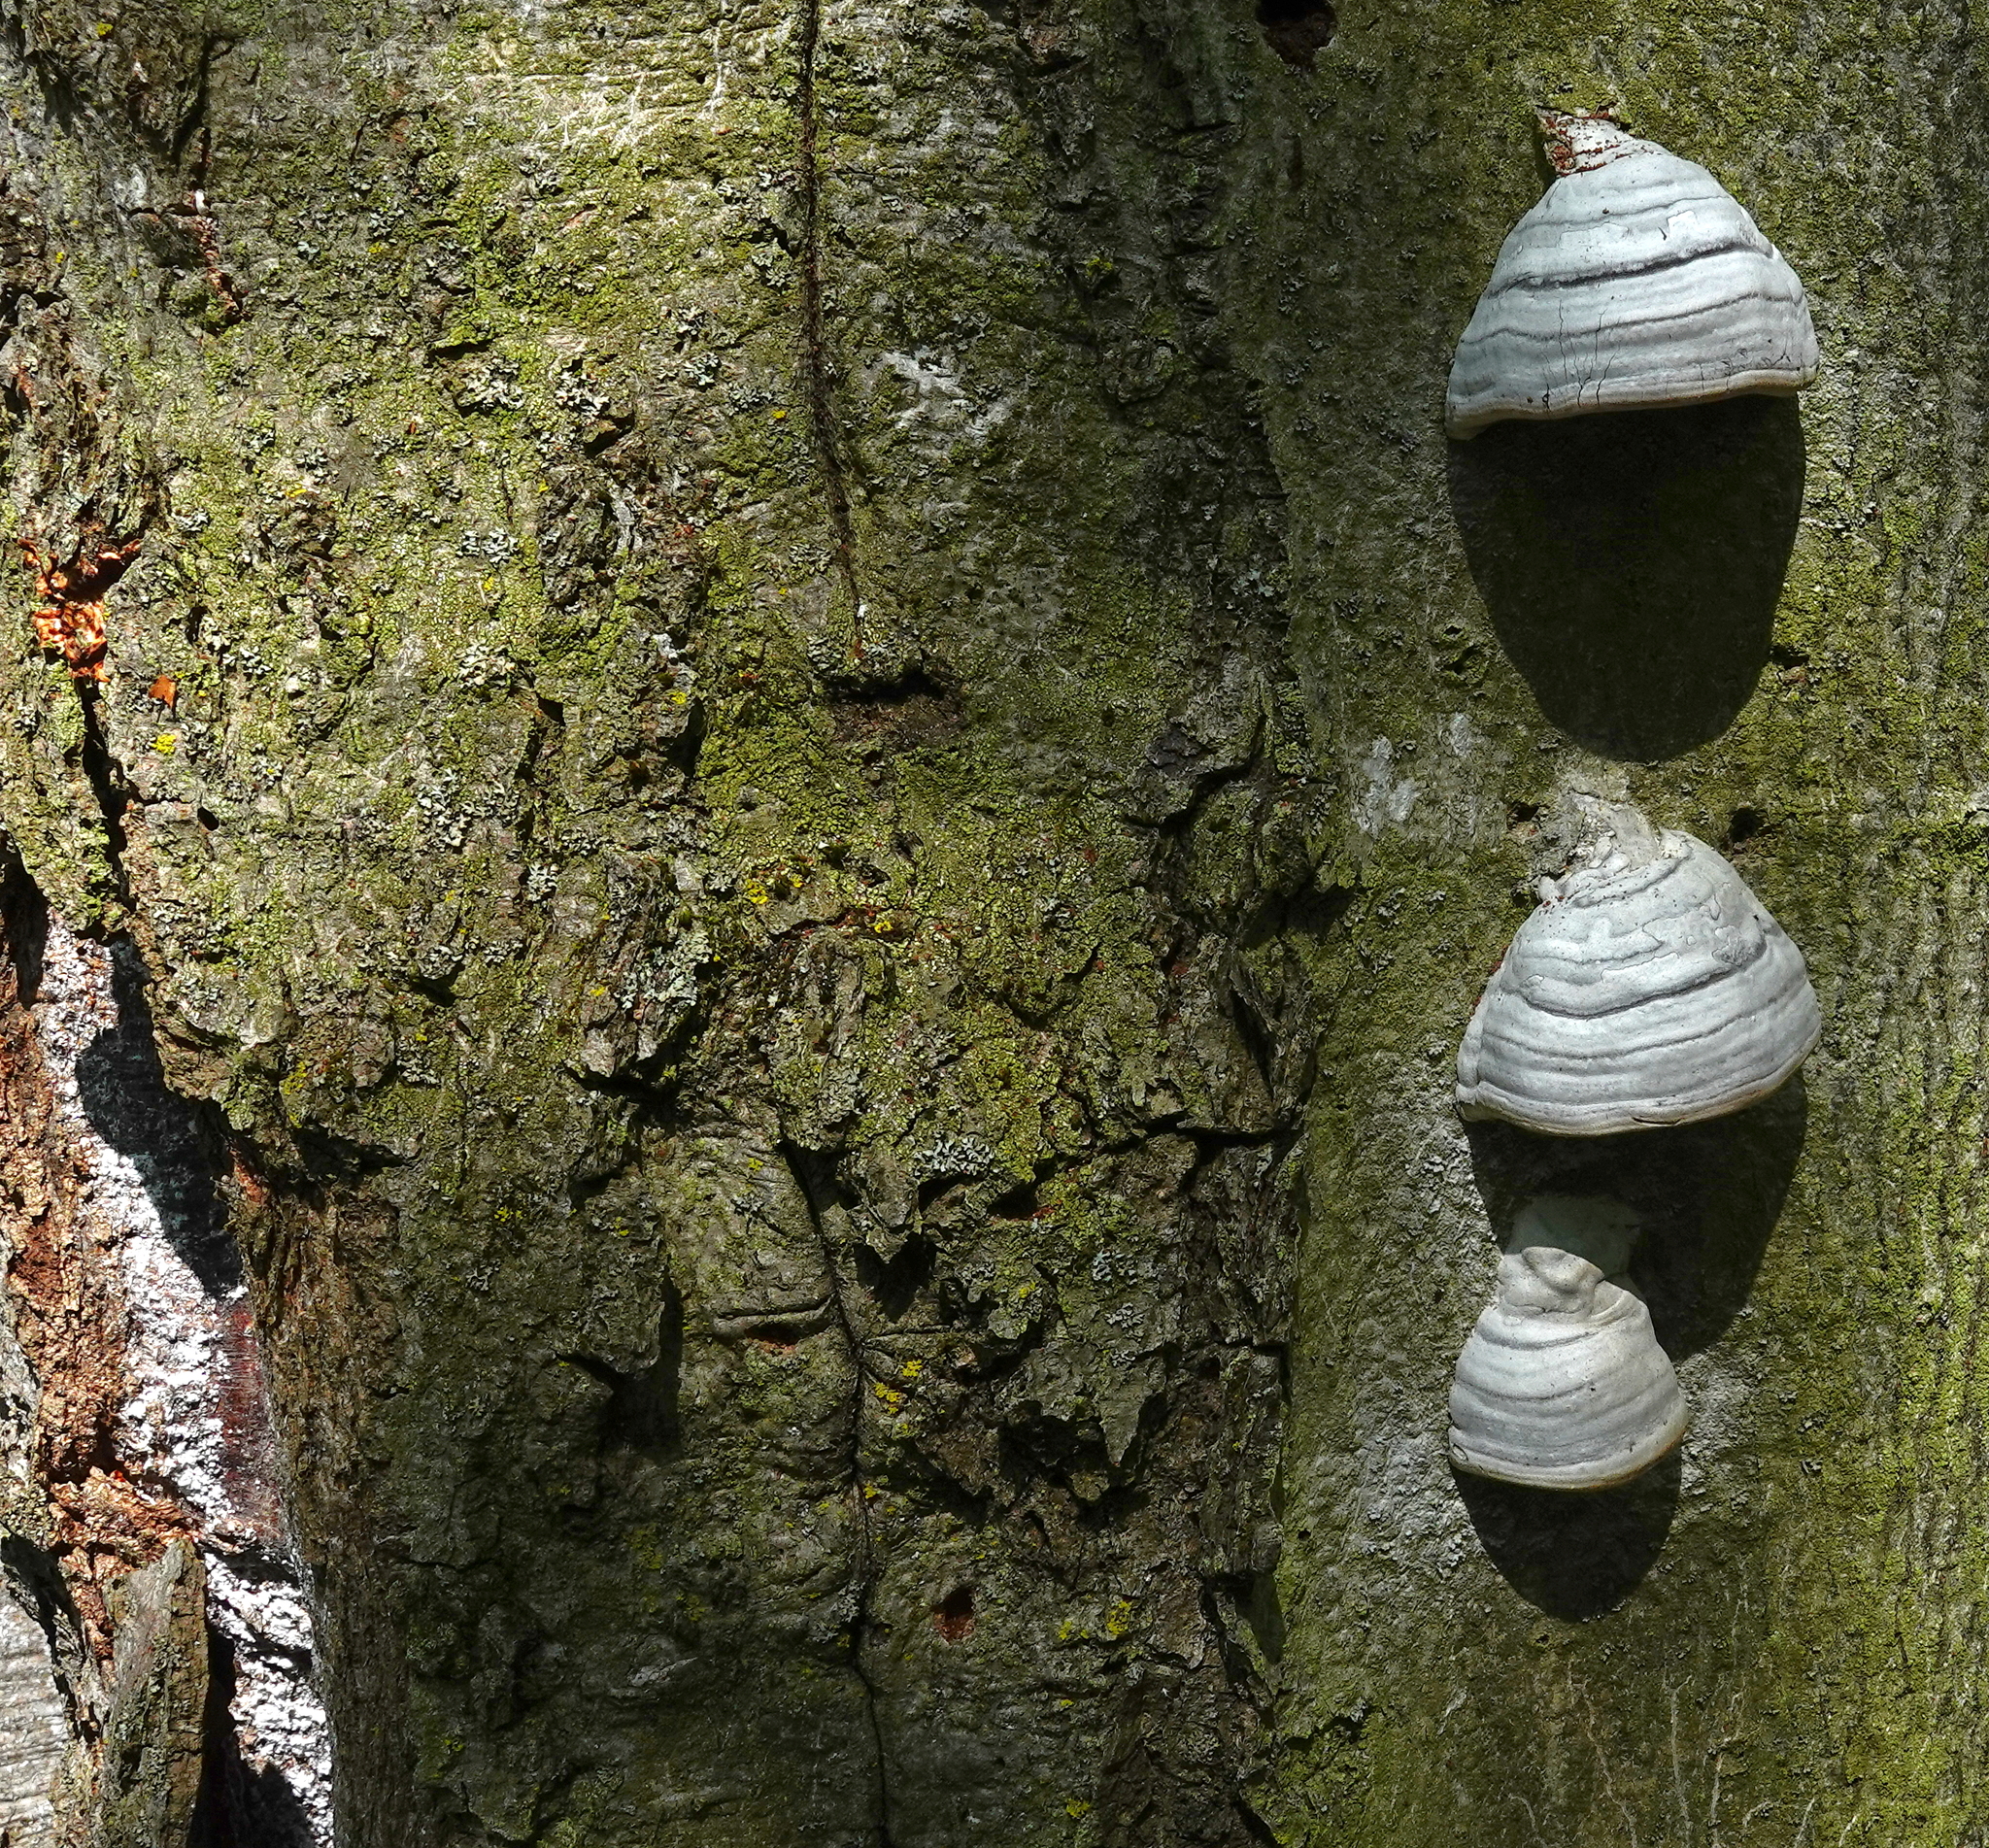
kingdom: Fungi
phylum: Basidiomycota
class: Agaricomycetes
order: Polyporales
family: Polyporaceae
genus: Fomes
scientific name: Fomes fomentarius
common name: Hoof fungus
